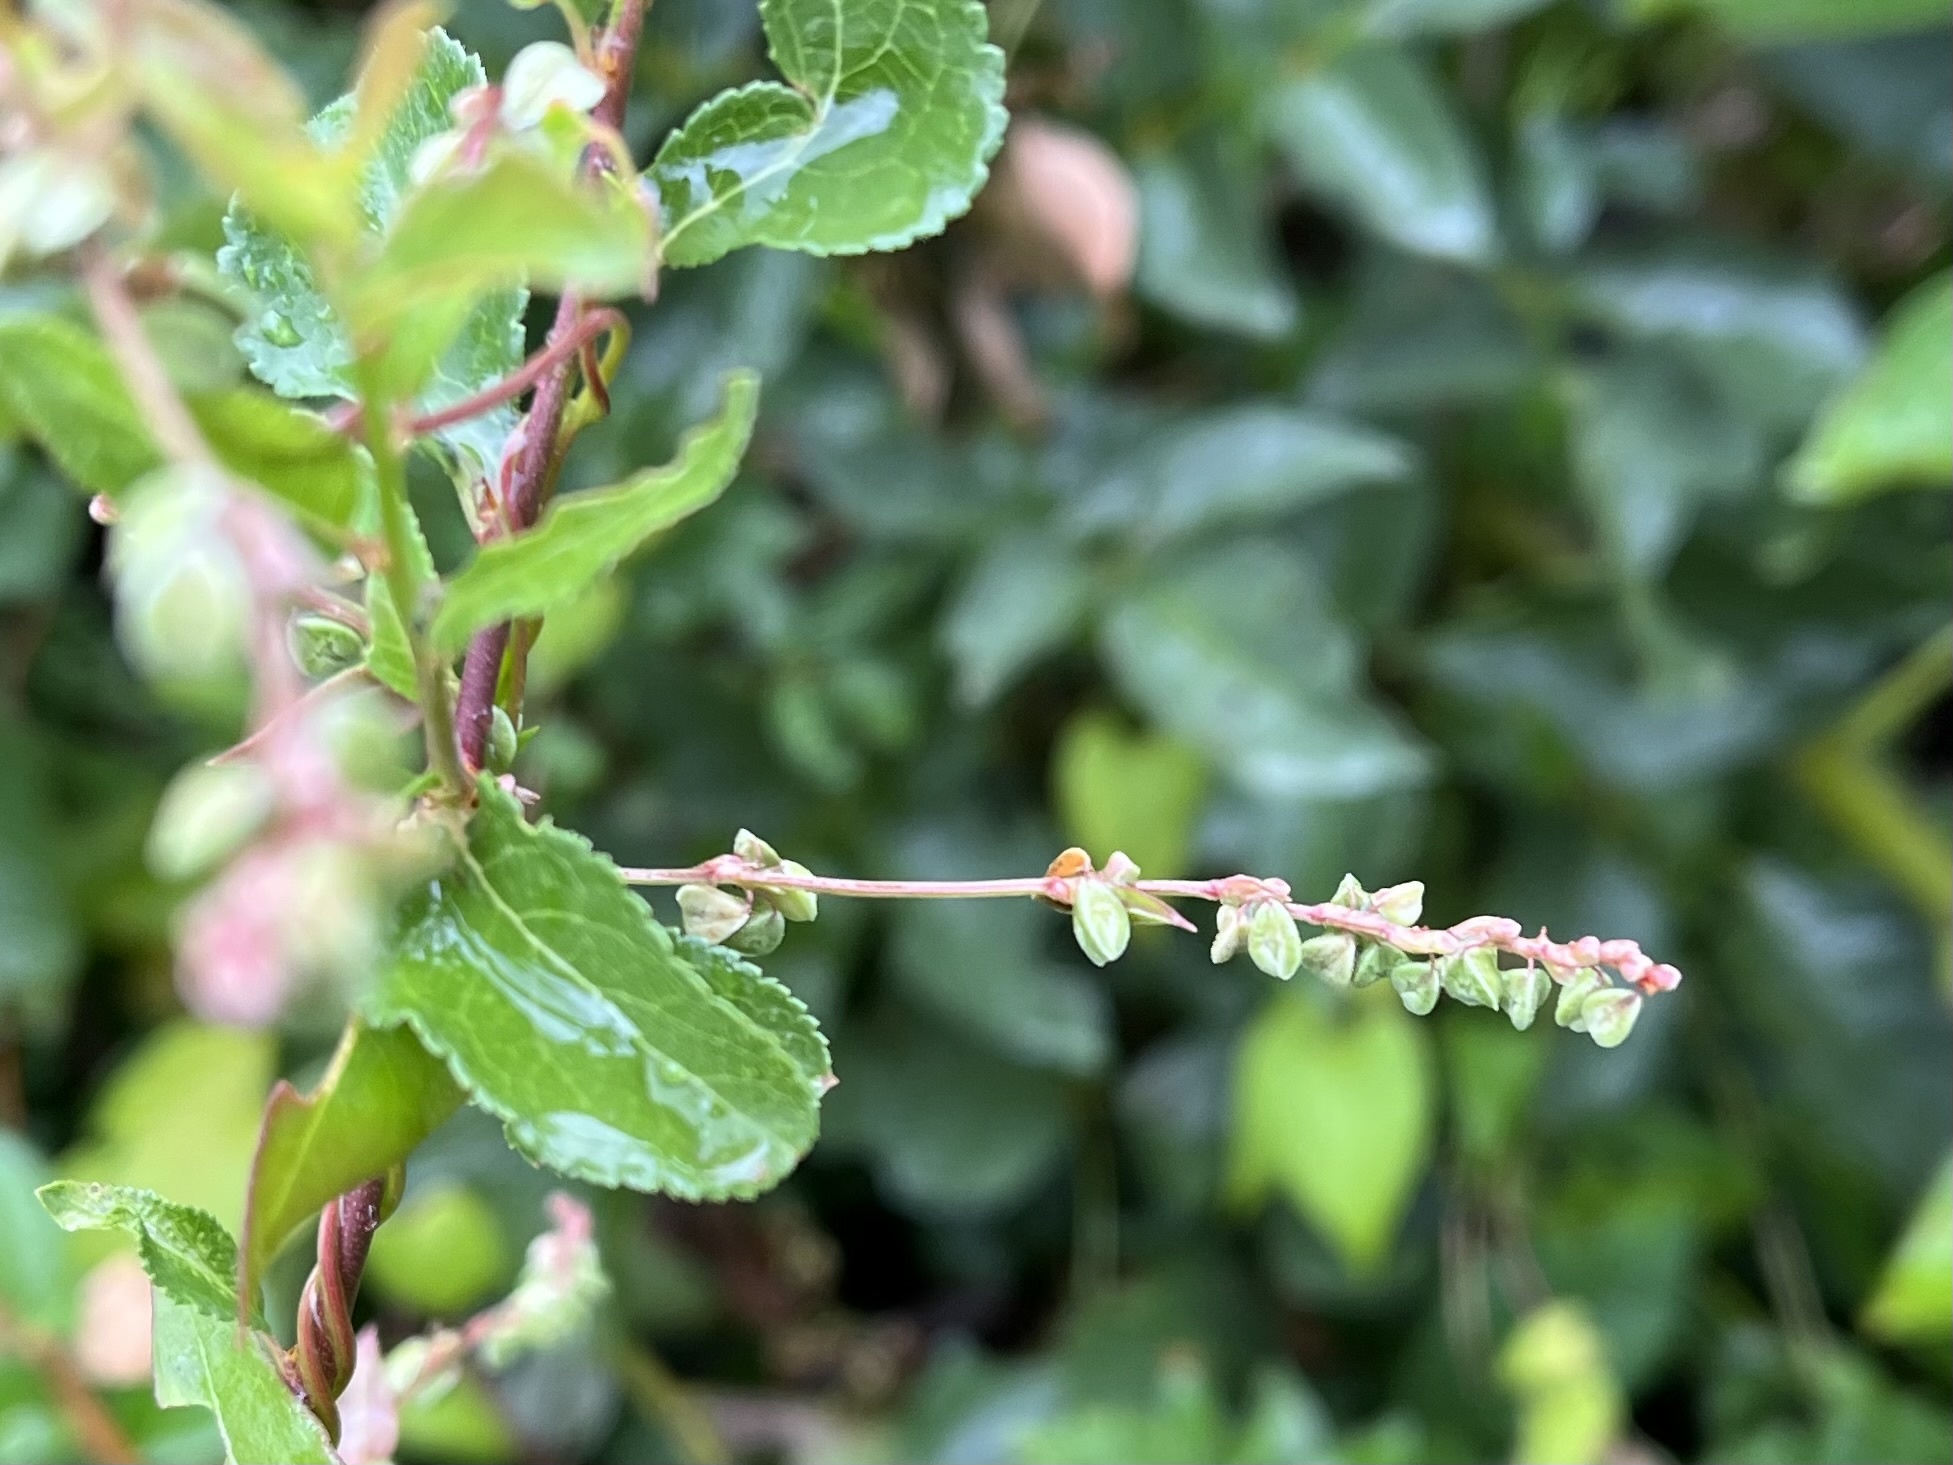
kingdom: Plantae
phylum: Tracheophyta
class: Magnoliopsida
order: Caryophyllales
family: Polygonaceae
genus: Fallopia
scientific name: Fallopia convolvulus
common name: Black bindweed
